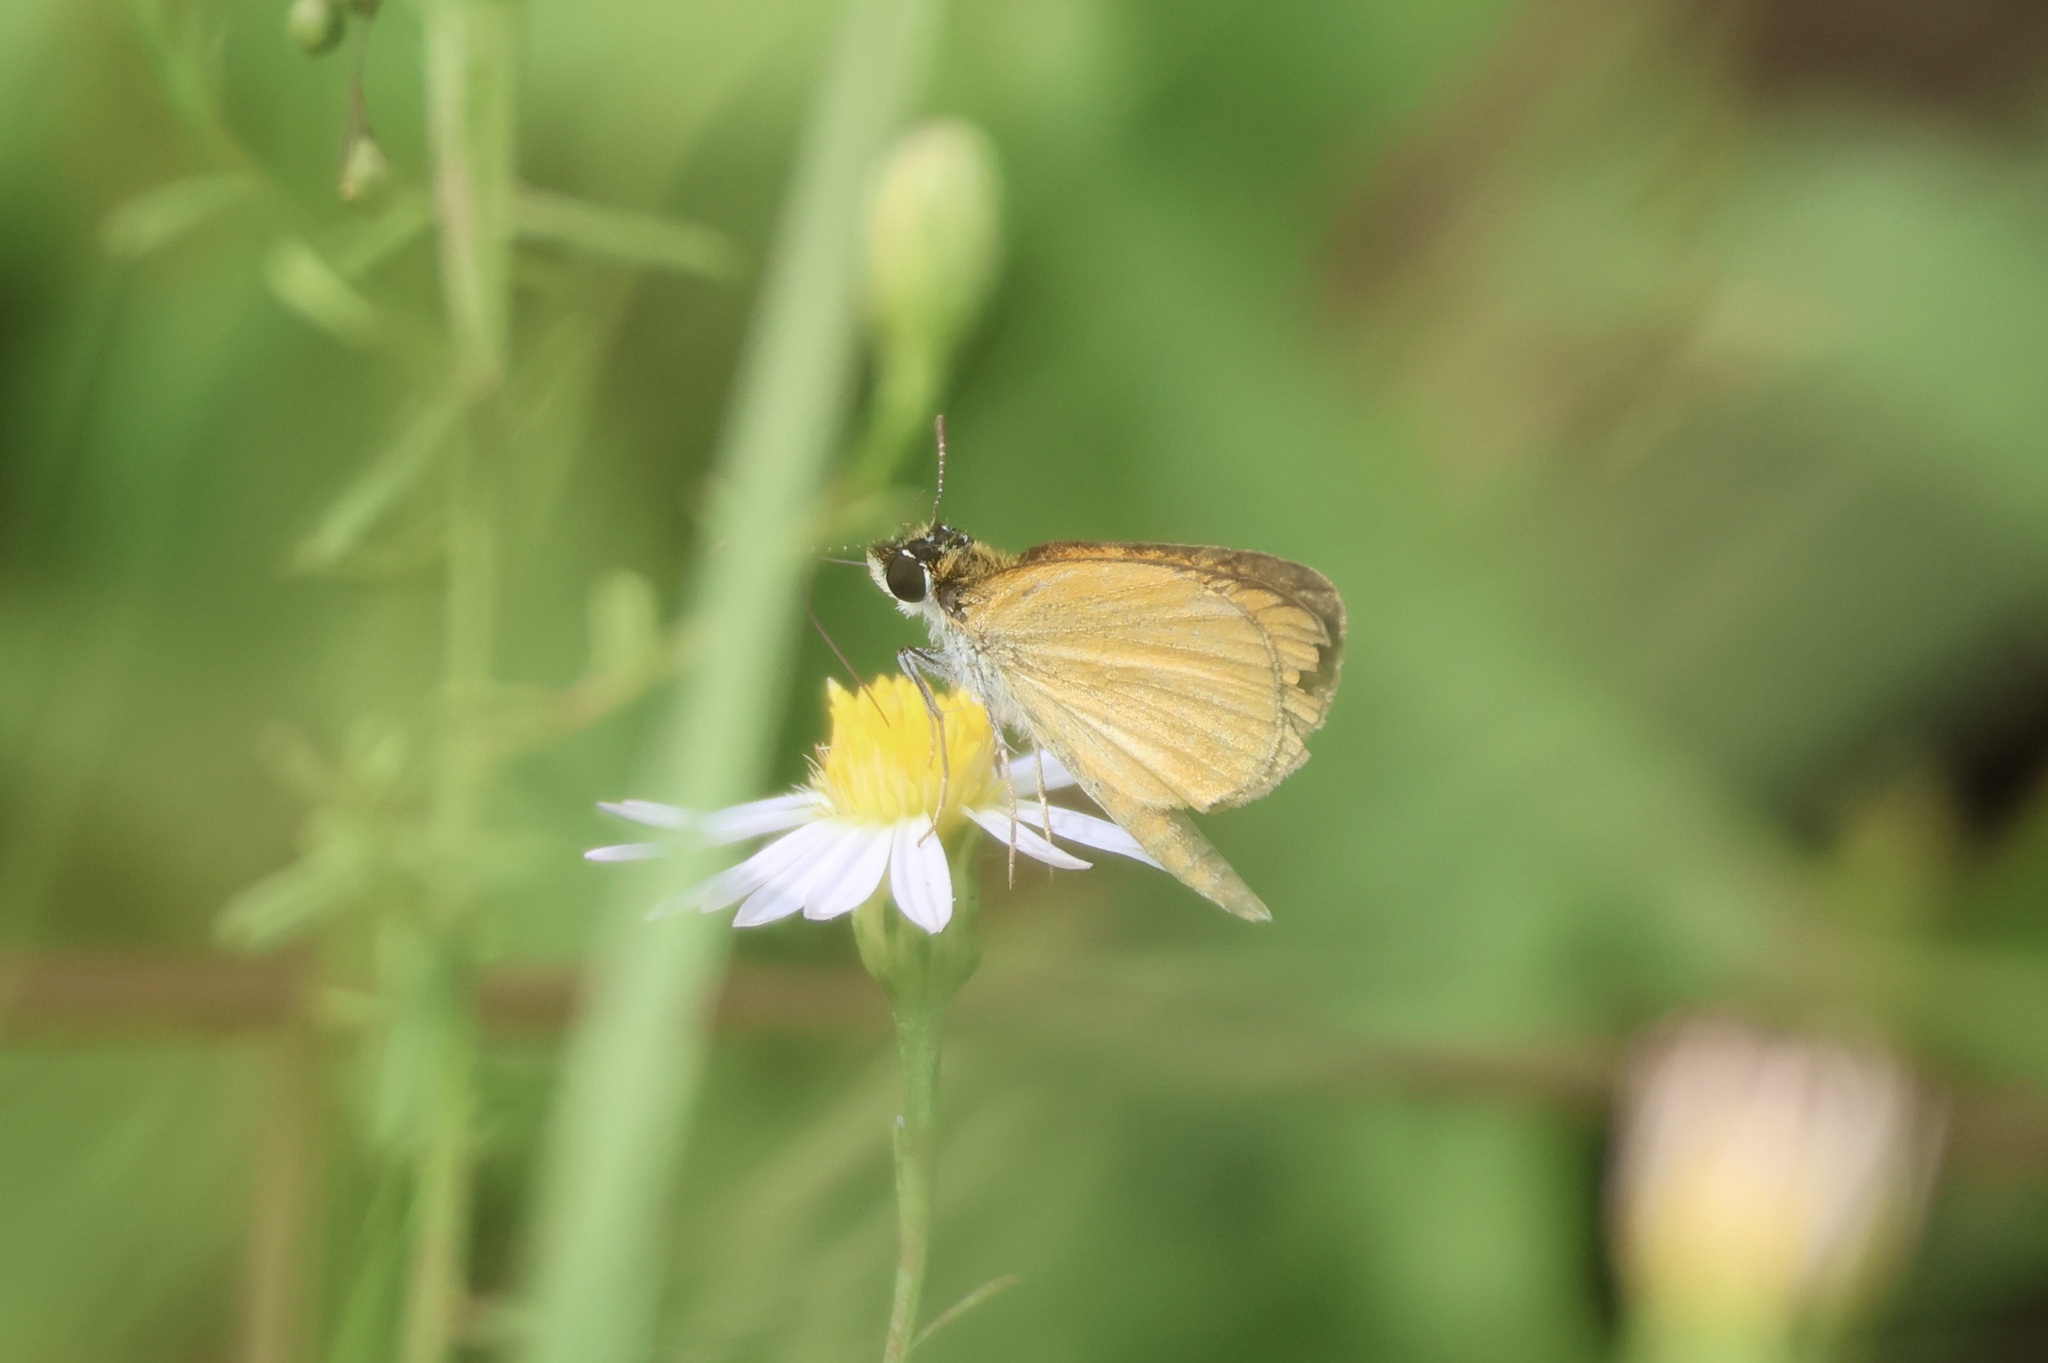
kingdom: Animalia
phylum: Arthropoda
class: Insecta
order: Lepidoptera
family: Hesperiidae
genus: Ancyloxypha
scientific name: Ancyloxypha numitor
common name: Least skipper
